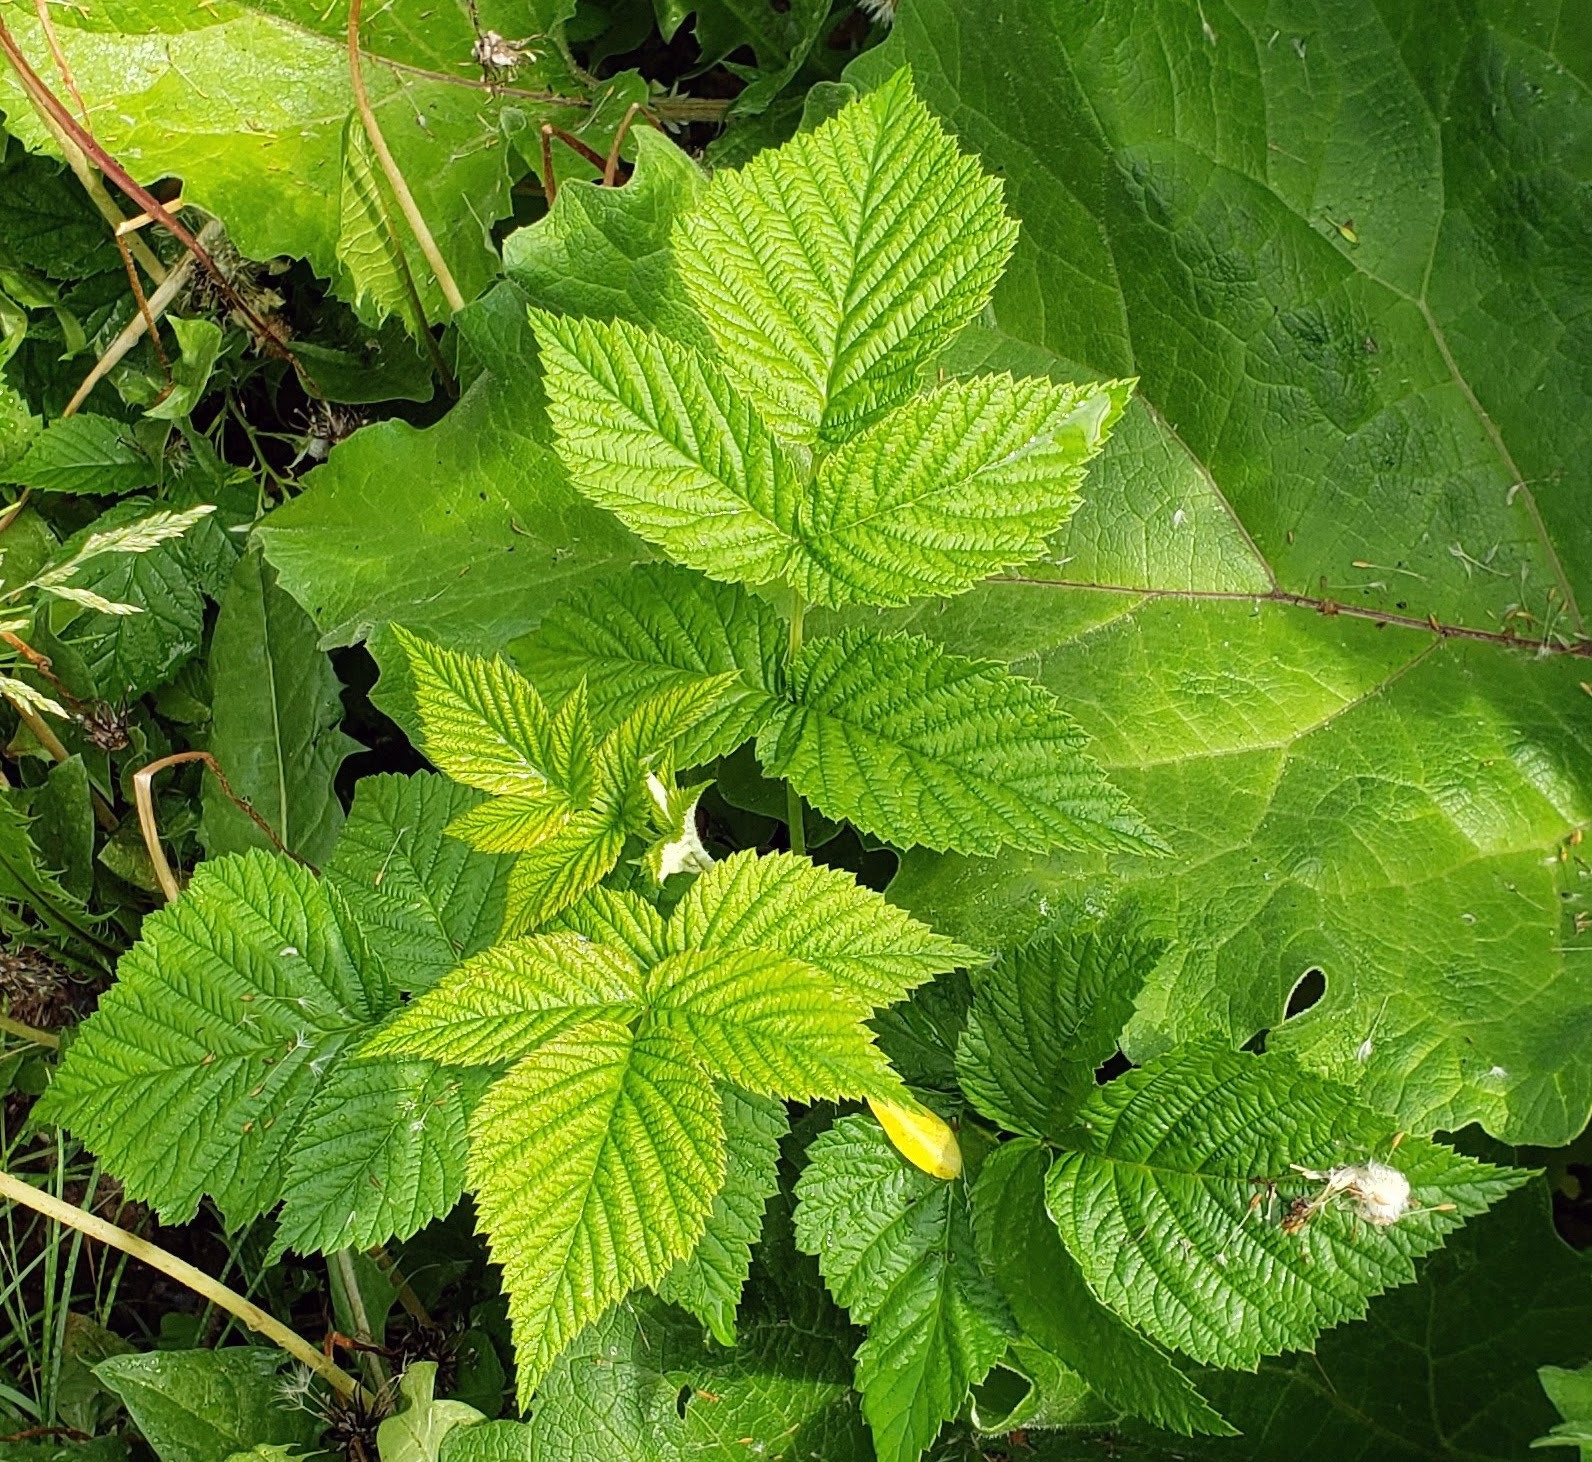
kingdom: Plantae
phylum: Tracheophyta
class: Magnoliopsida
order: Rosales
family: Rosaceae
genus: Rubus
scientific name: Rubus idaeus
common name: Raspberry
